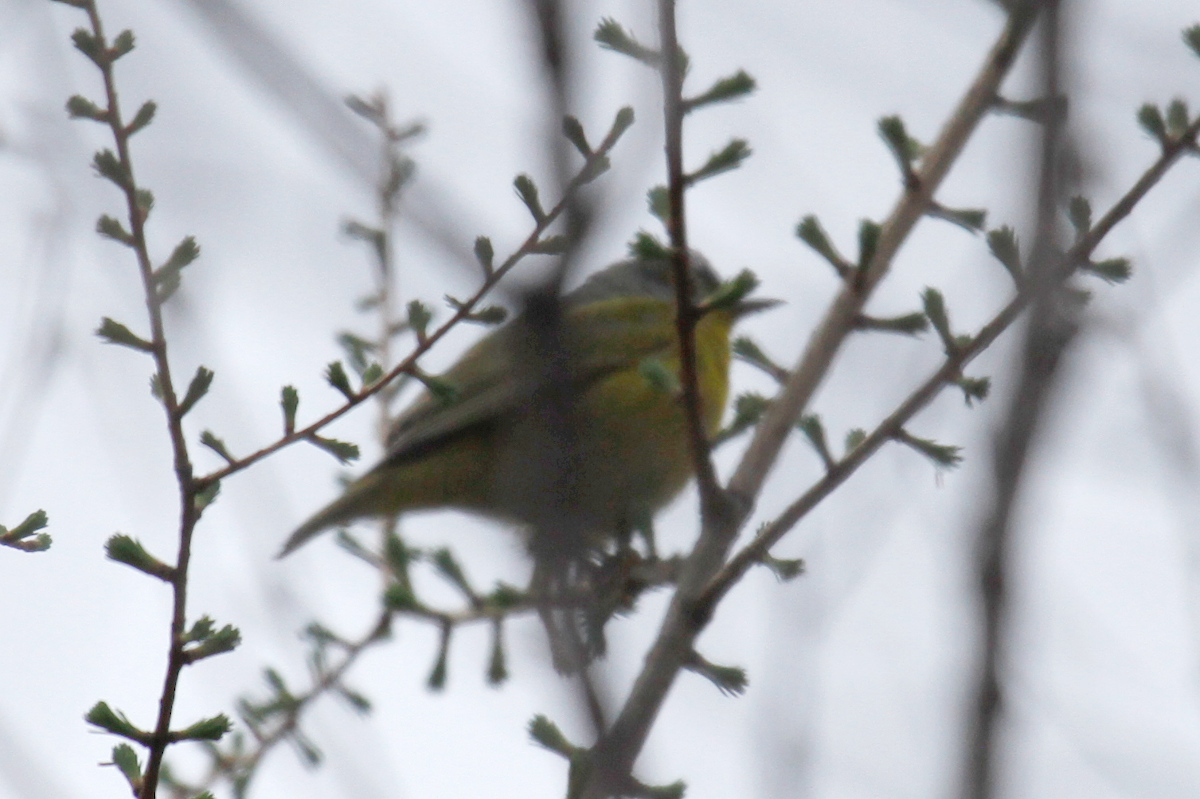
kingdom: Animalia
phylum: Chordata
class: Aves
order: Passeriformes
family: Parulidae
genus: Leiothlypis
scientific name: Leiothlypis ruficapilla
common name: Nashville warbler
